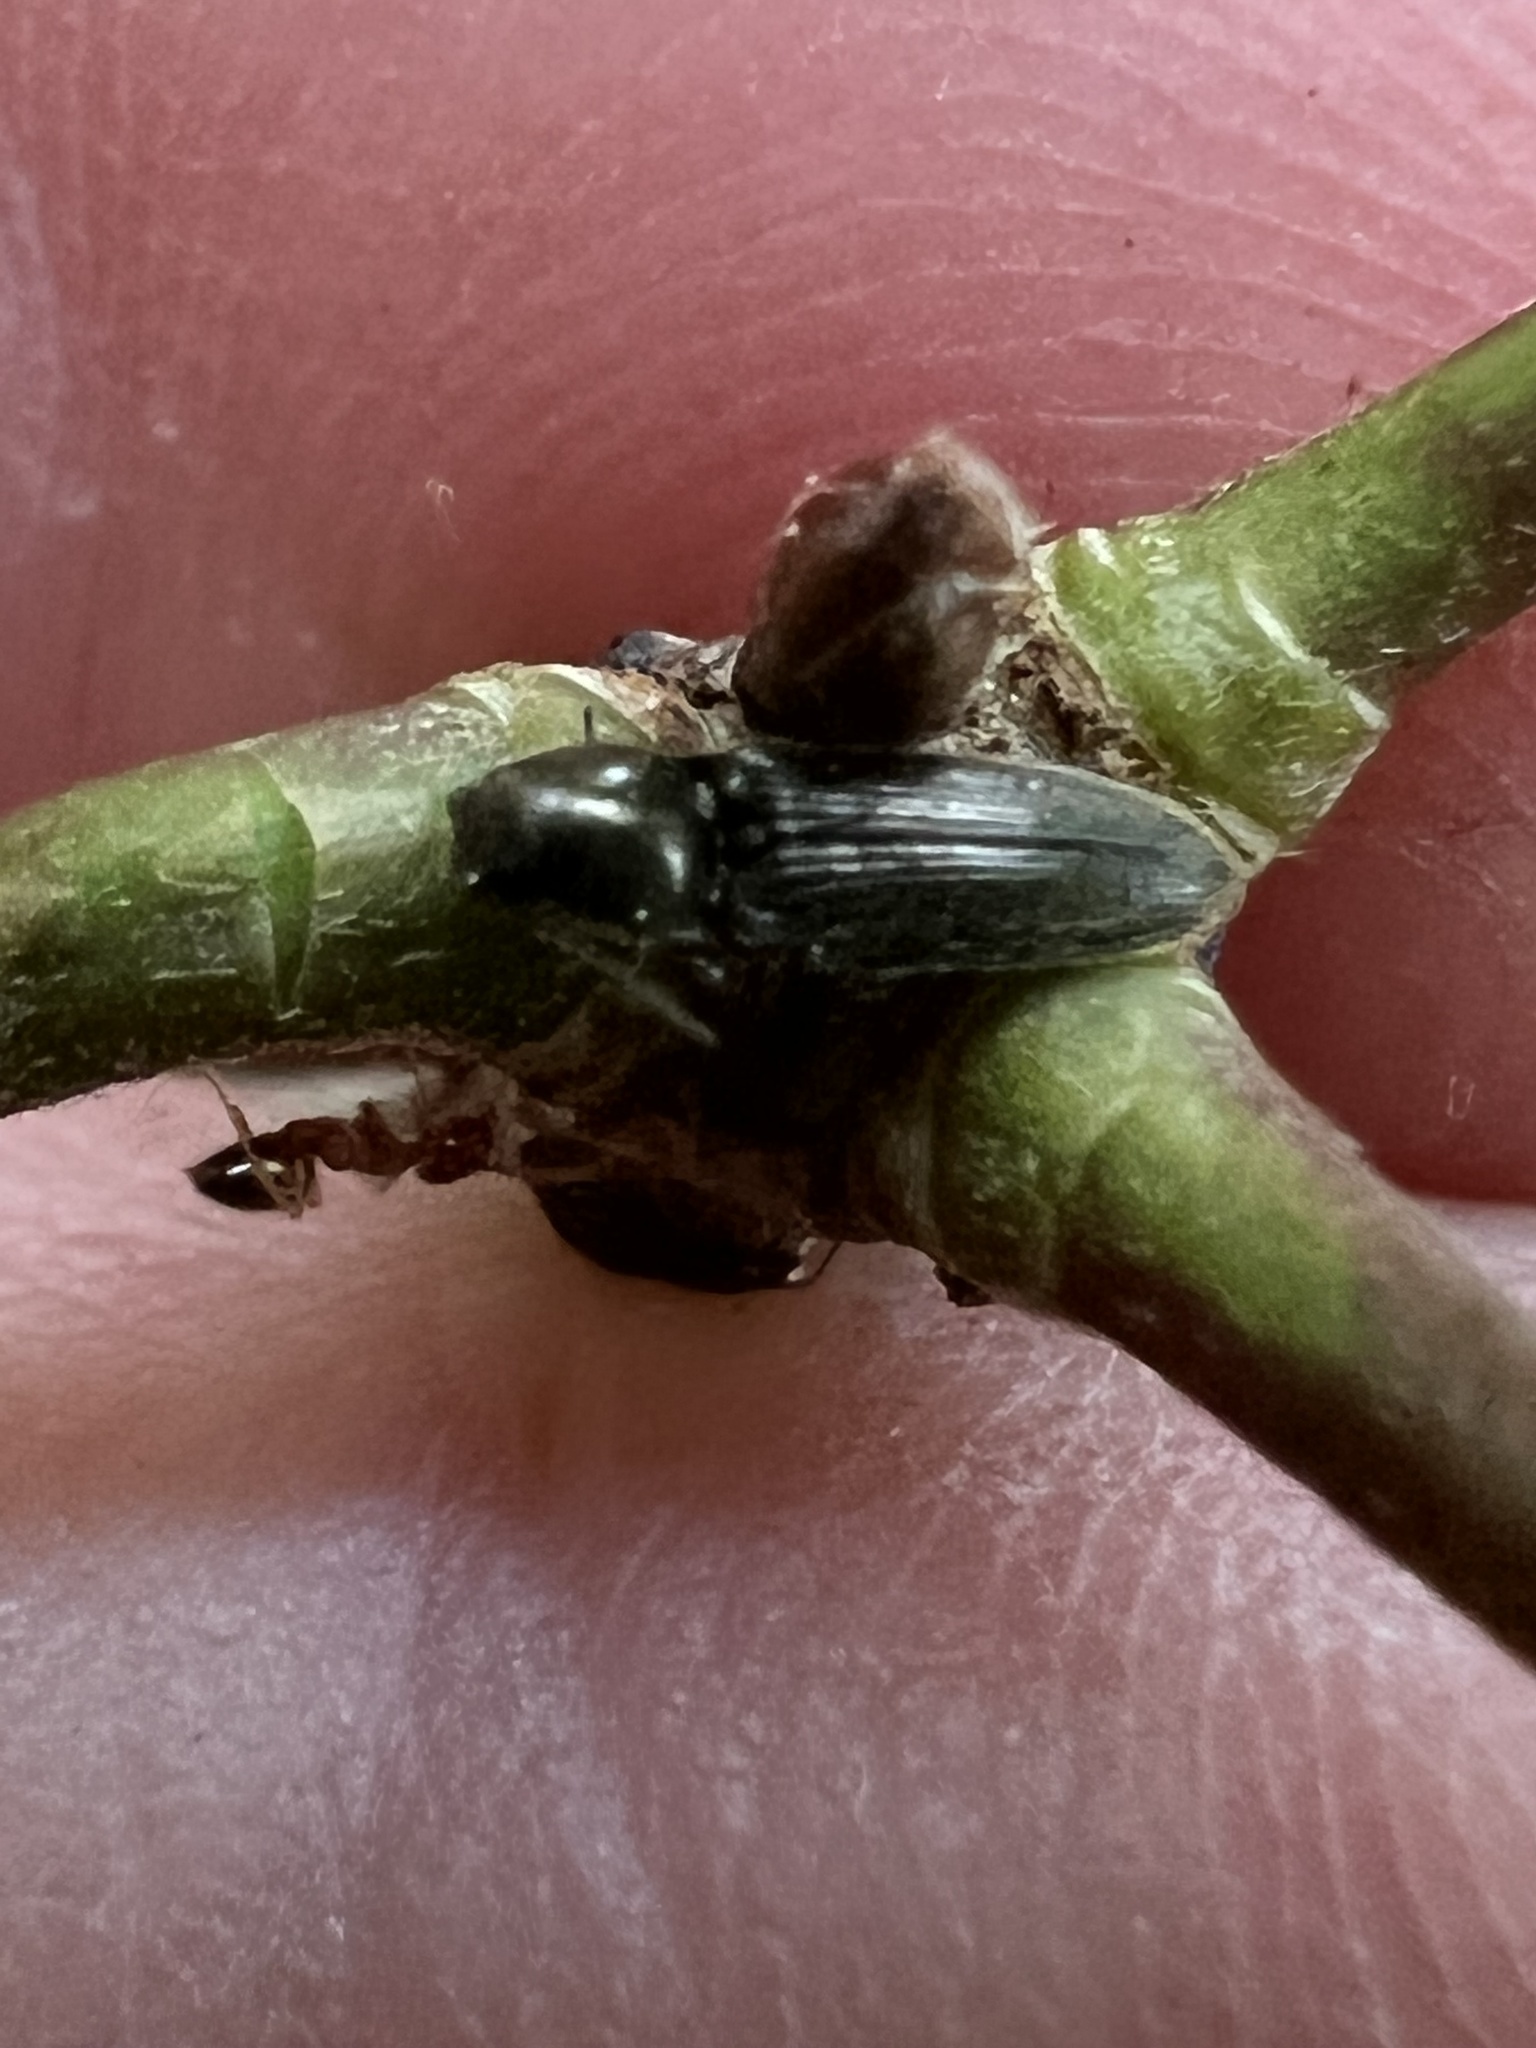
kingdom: Animalia
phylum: Arthropoda
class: Insecta
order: Coleoptera
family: Elateridae
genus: Limonius
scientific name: Limonius quercinus
